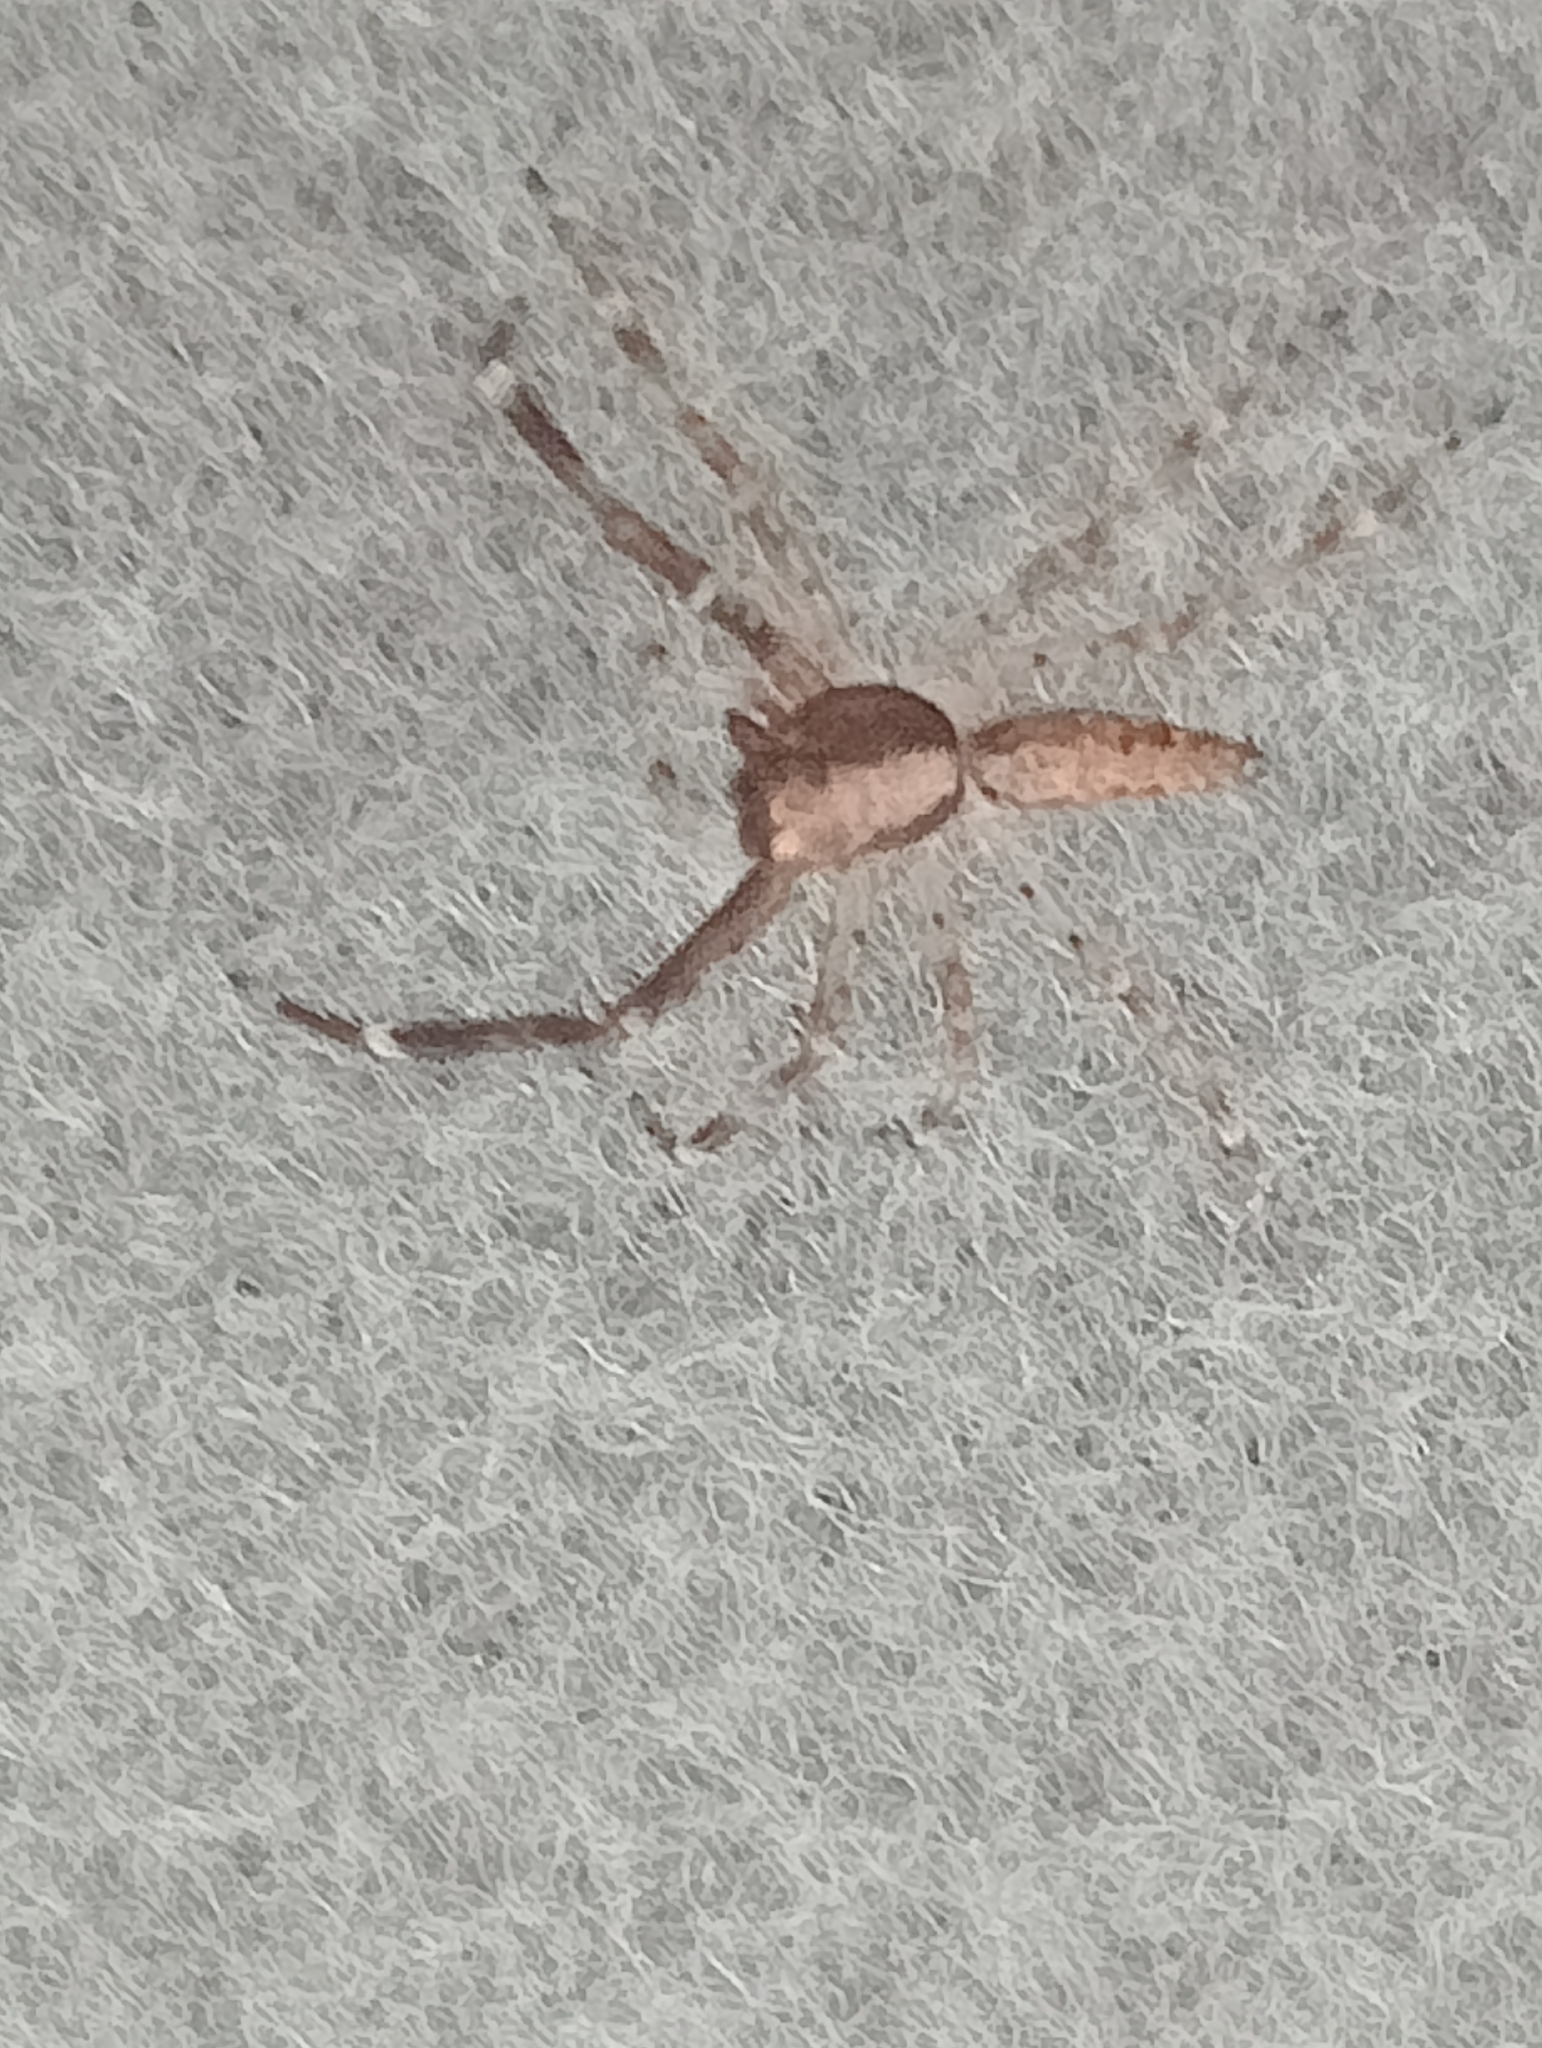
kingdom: Animalia
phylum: Arthropoda
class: Arachnida
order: Araneae
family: Salticidae
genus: Helpis
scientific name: Helpis minitabunda
